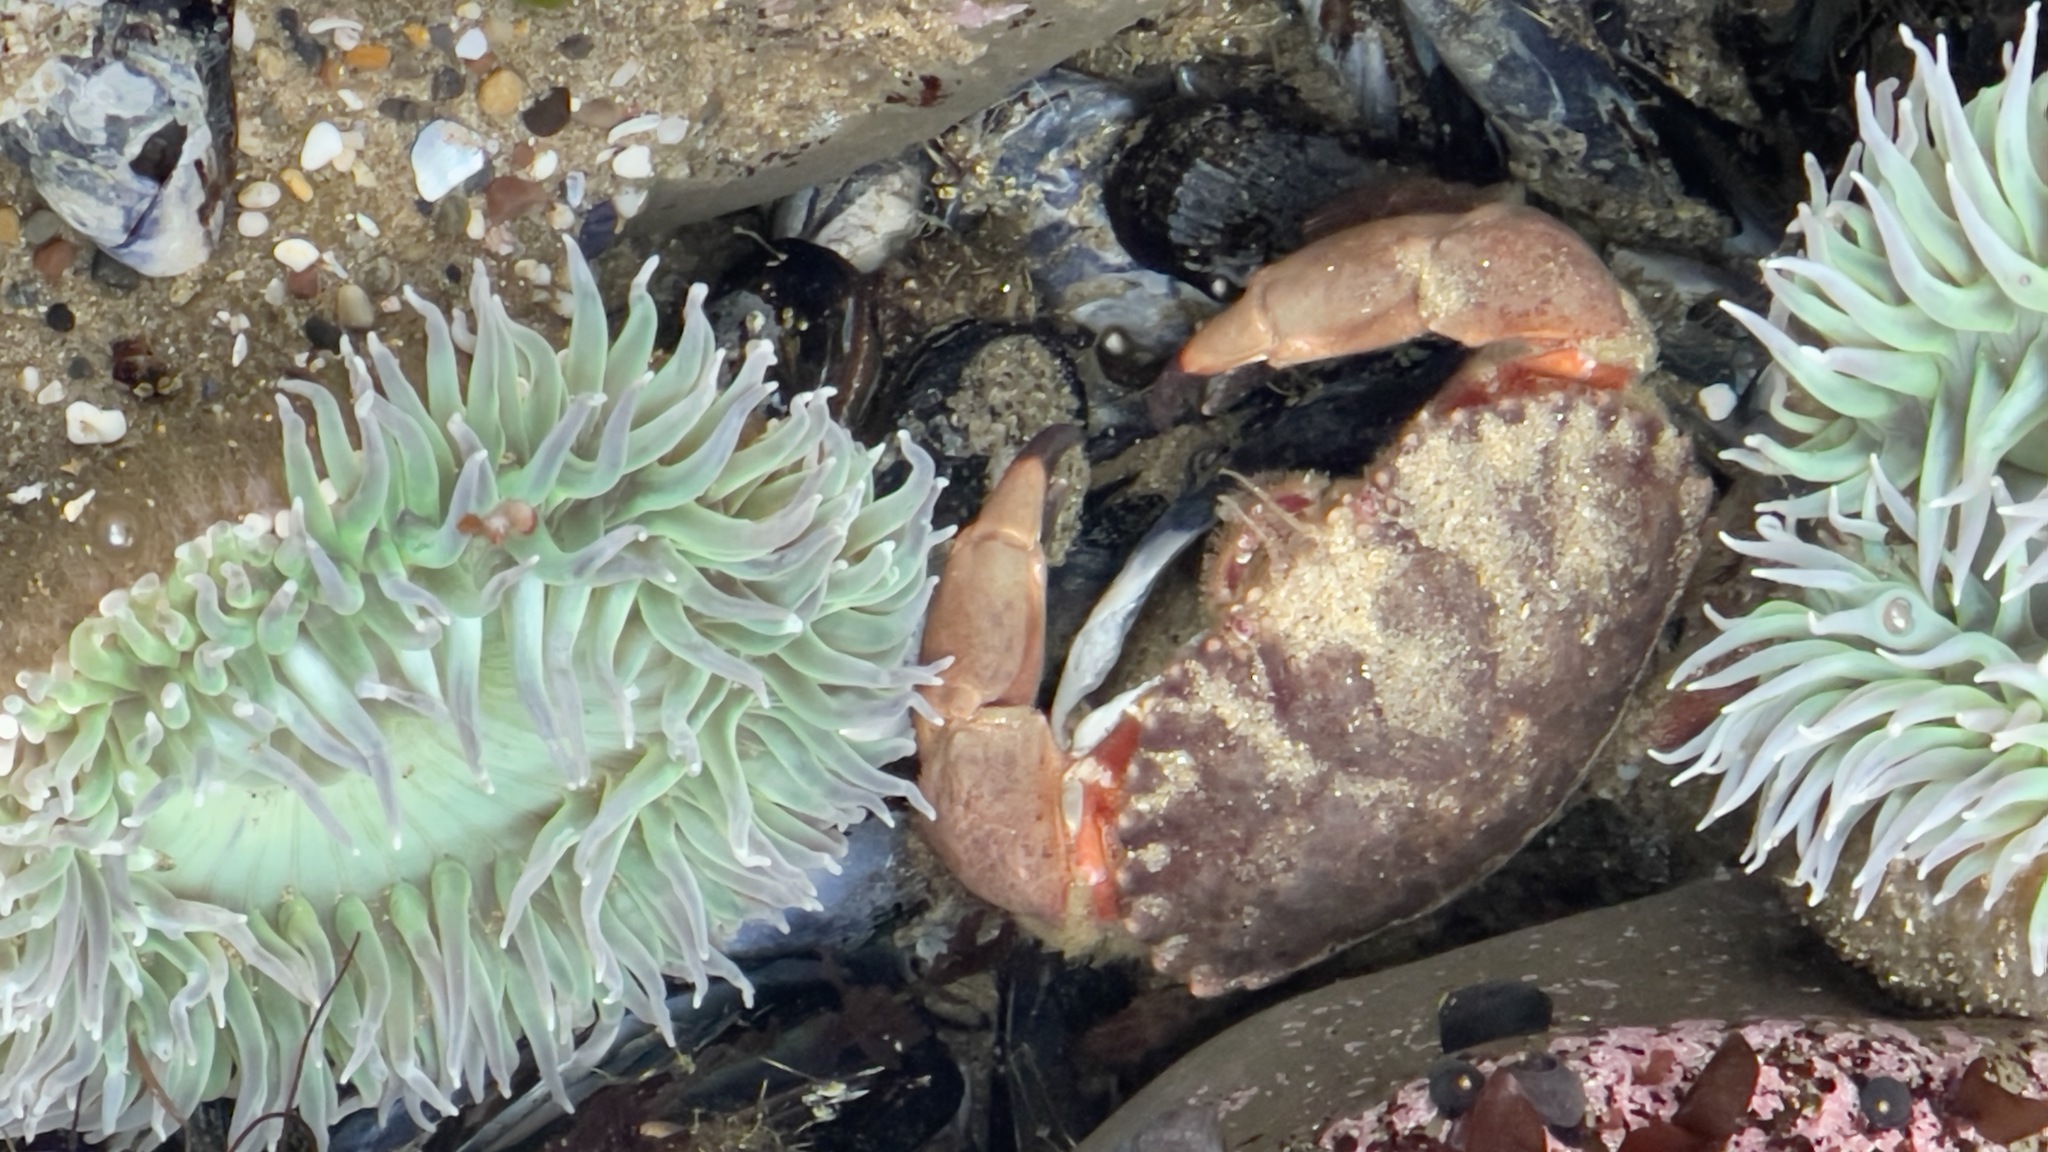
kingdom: Animalia
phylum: Arthropoda
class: Malacostraca
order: Decapoda
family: Cancridae
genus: Romaleon
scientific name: Romaleon antennarium
